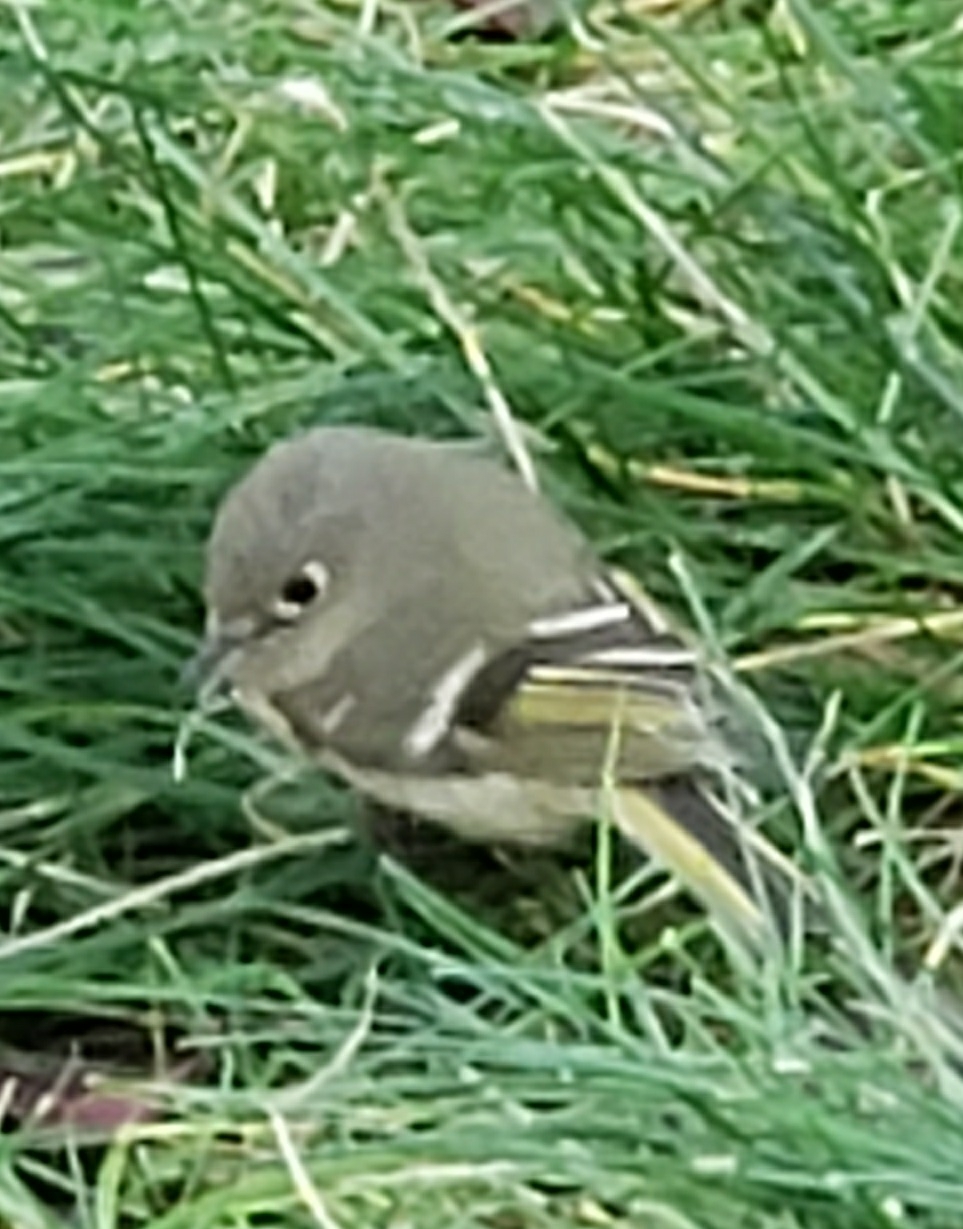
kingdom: Animalia
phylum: Chordata
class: Aves
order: Passeriformes
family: Regulidae
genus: Regulus
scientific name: Regulus calendula
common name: Ruby-crowned kinglet
